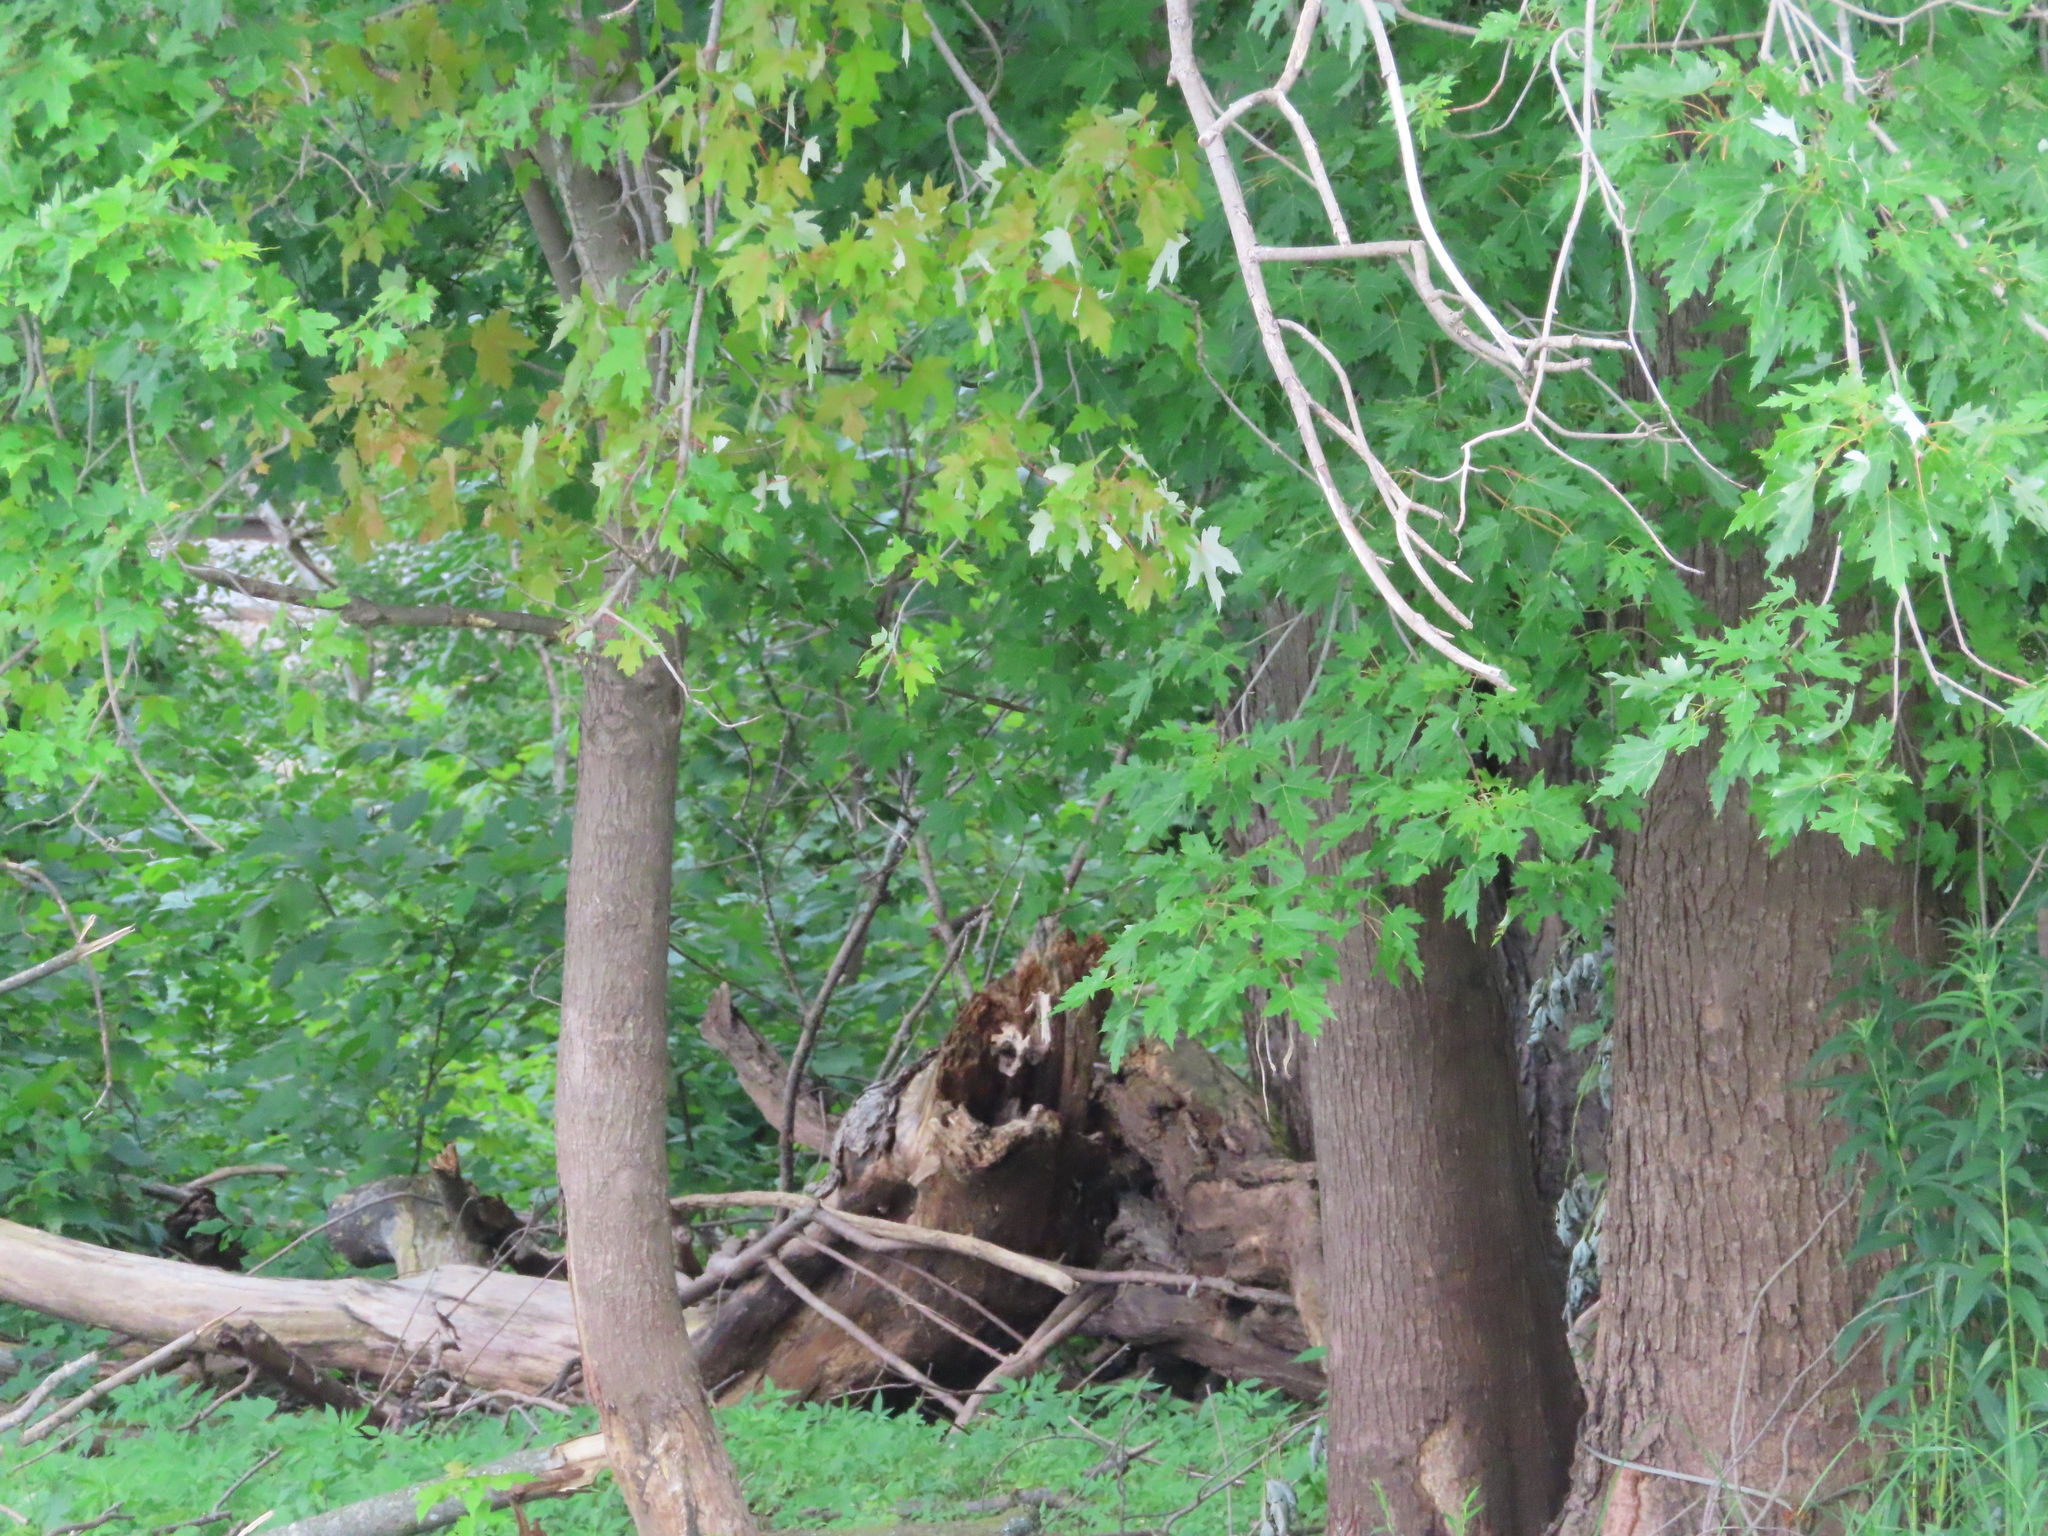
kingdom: Plantae
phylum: Tracheophyta
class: Magnoliopsida
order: Sapindales
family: Sapindaceae
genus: Acer
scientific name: Acer saccharinum
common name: Silver maple
